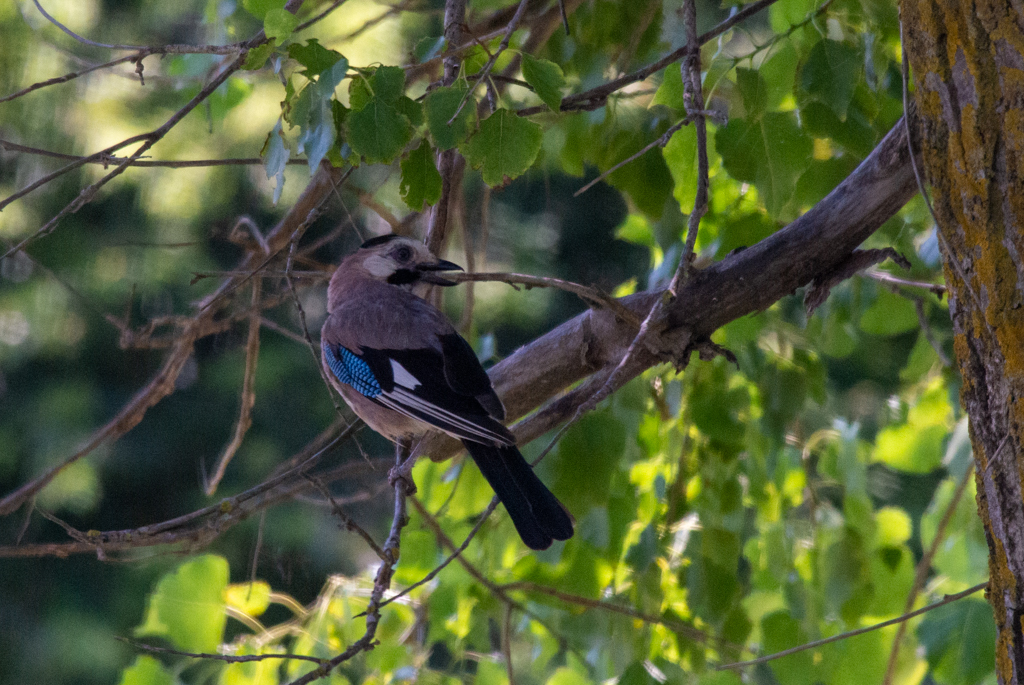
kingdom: Animalia
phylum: Chordata
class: Aves
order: Passeriformes
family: Corvidae
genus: Garrulus
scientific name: Garrulus glandarius
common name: Eurasian jay
